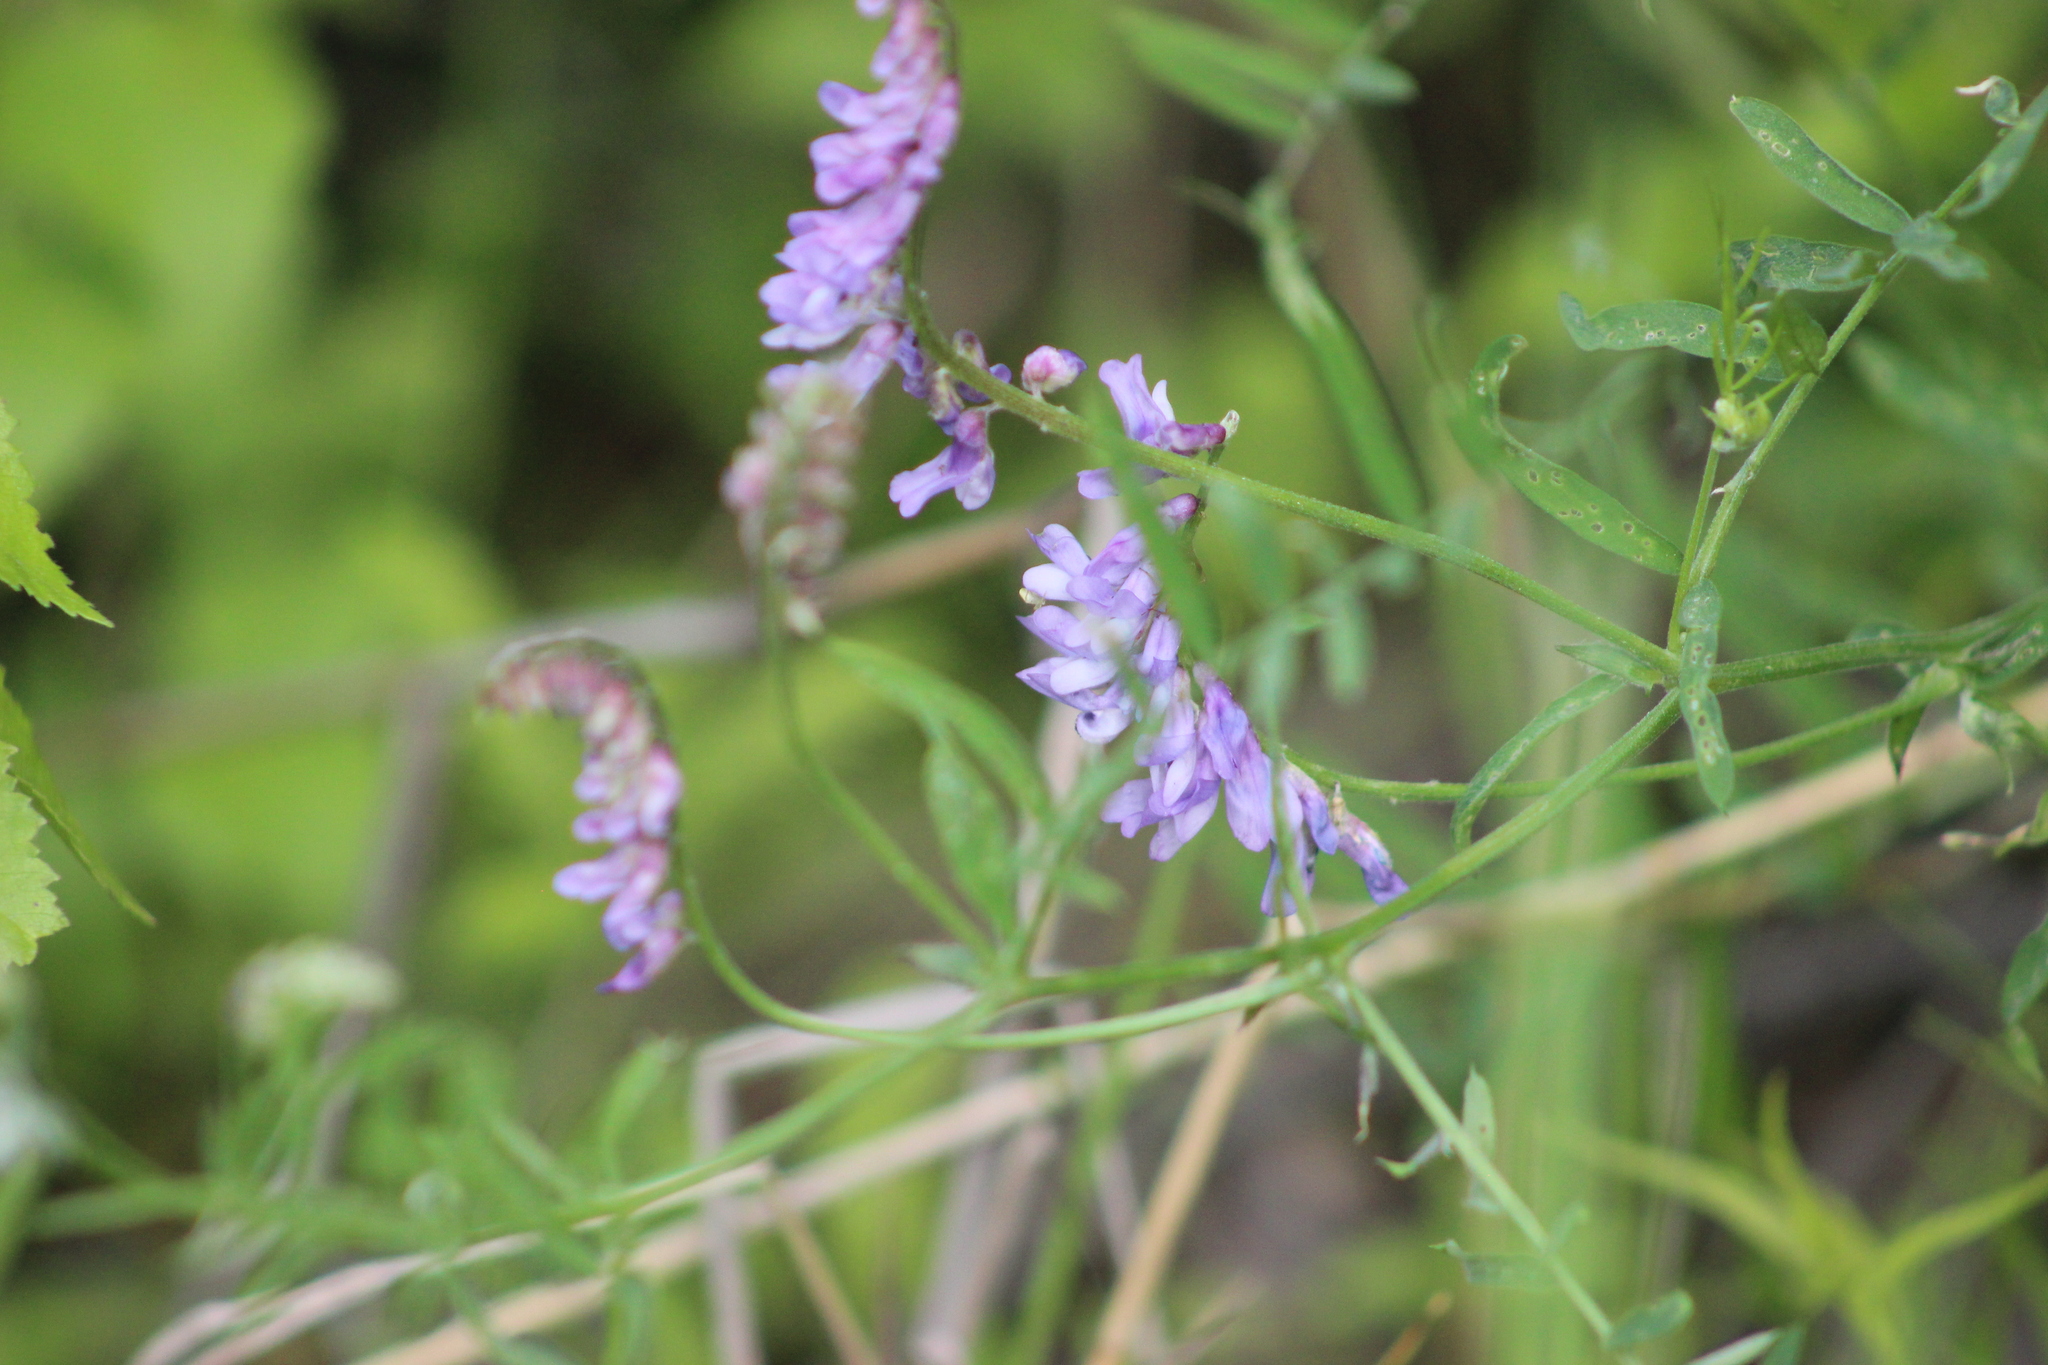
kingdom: Plantae
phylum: Tracheophyta
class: Magnoliopsida
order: Fabales
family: Fabaceae
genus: Vicia
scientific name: Vicia cracca
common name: Bird vetch
